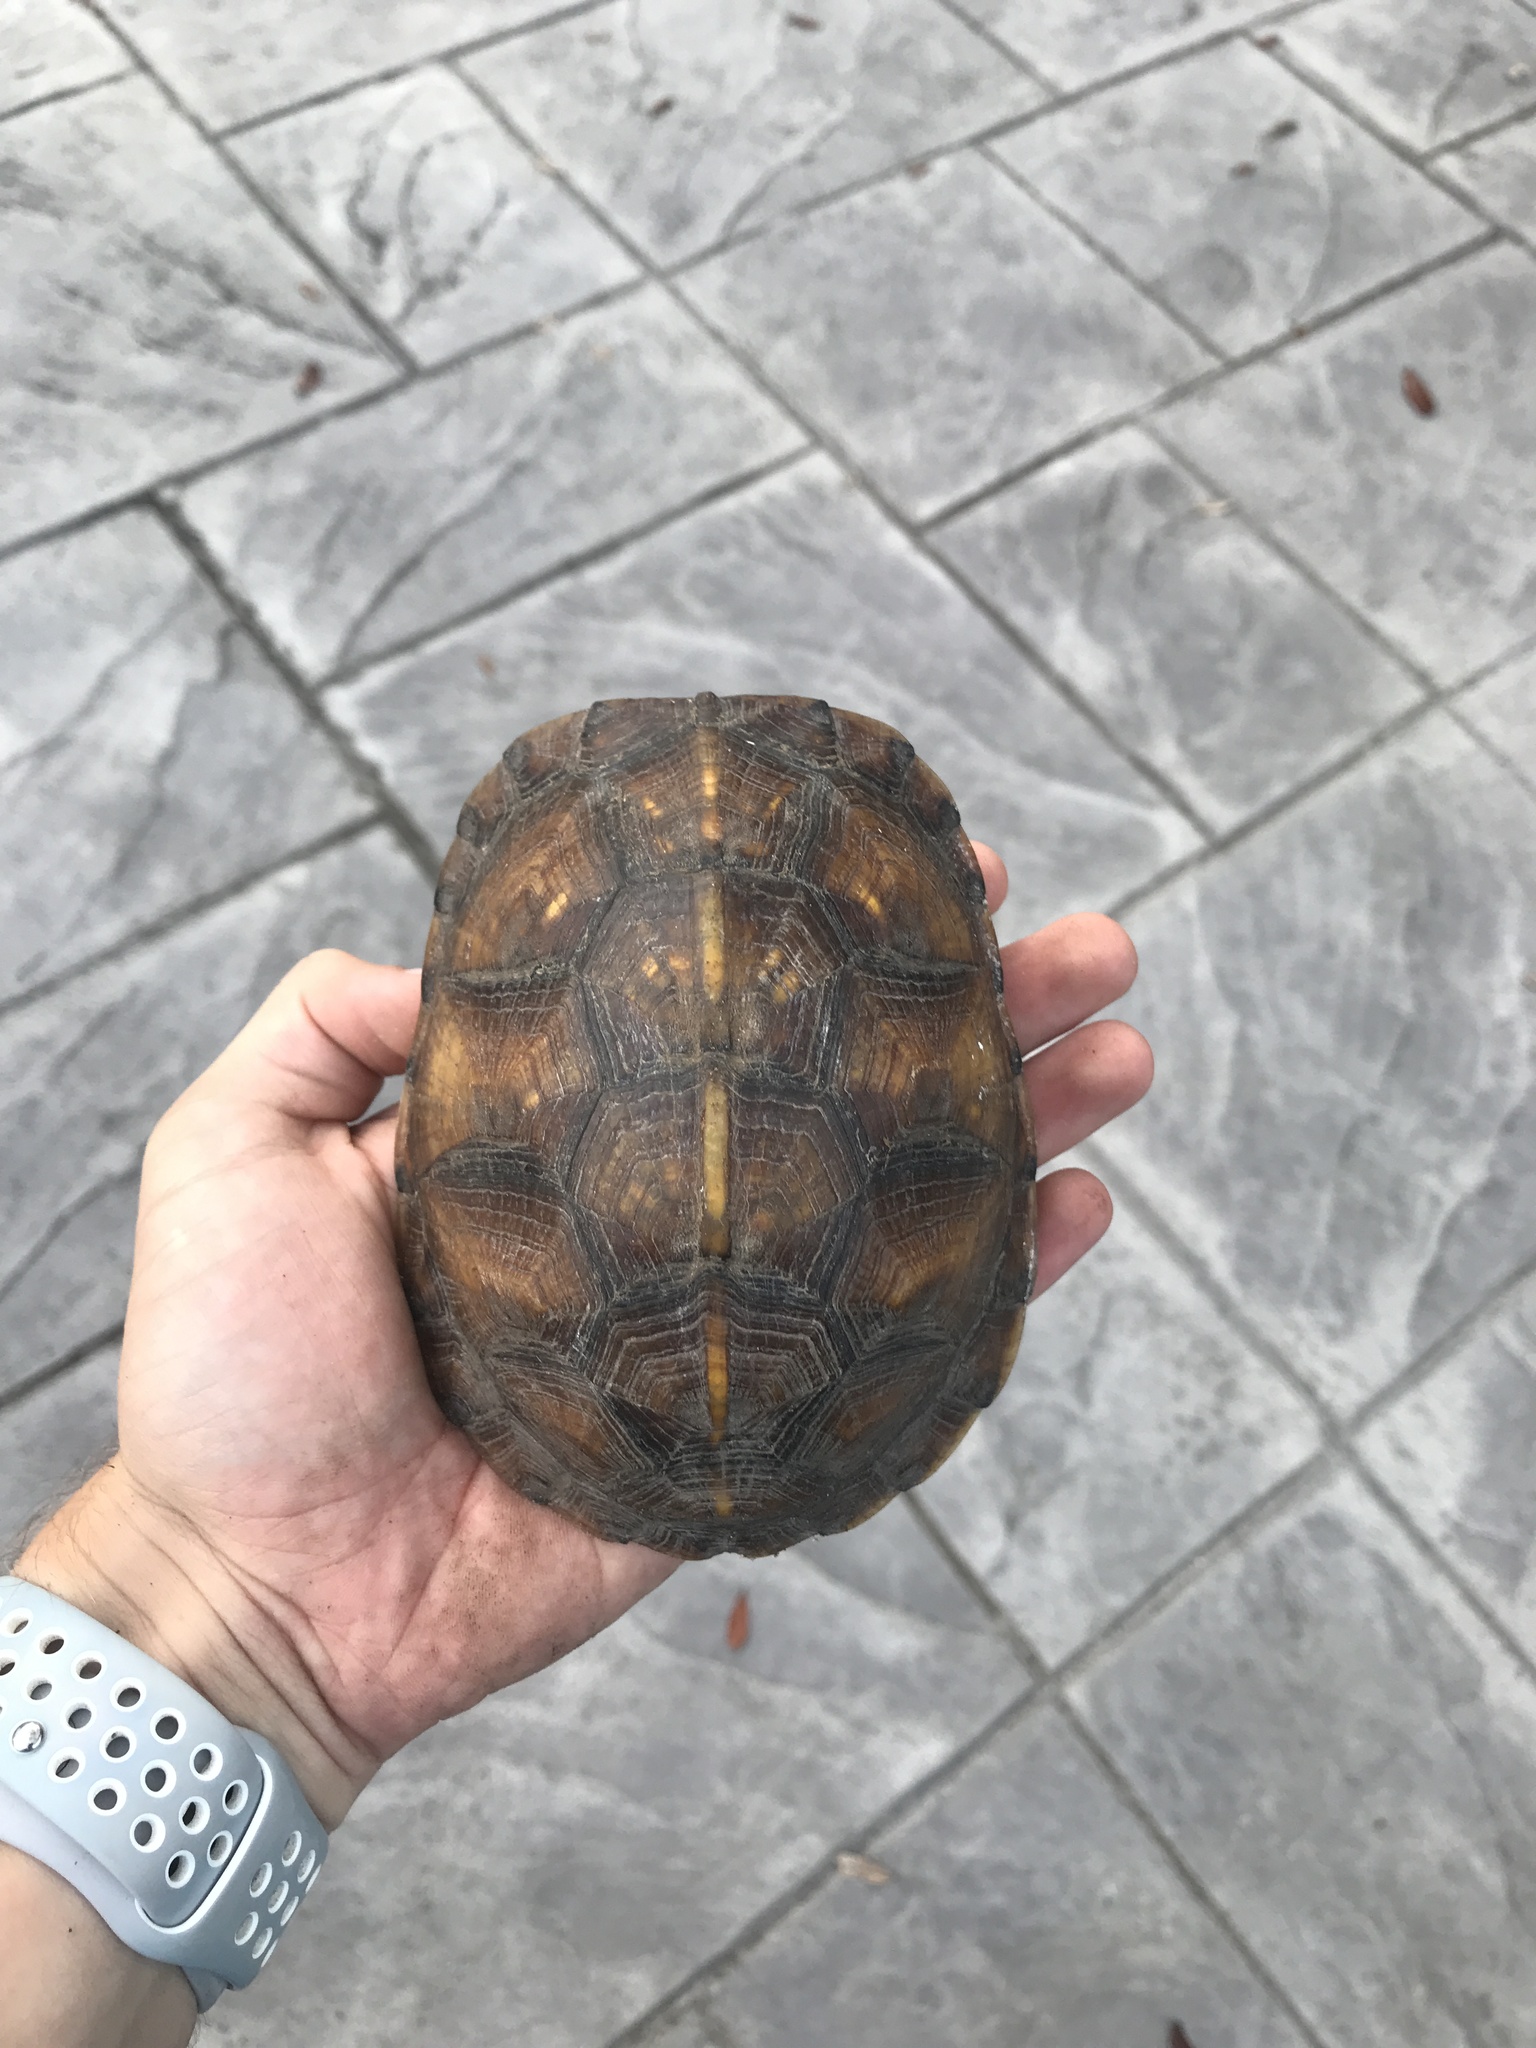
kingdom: Animalia
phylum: Chordata
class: Testudines
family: Emydidae
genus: Terrapene
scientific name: Terrapene carolina
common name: Common box turtle
